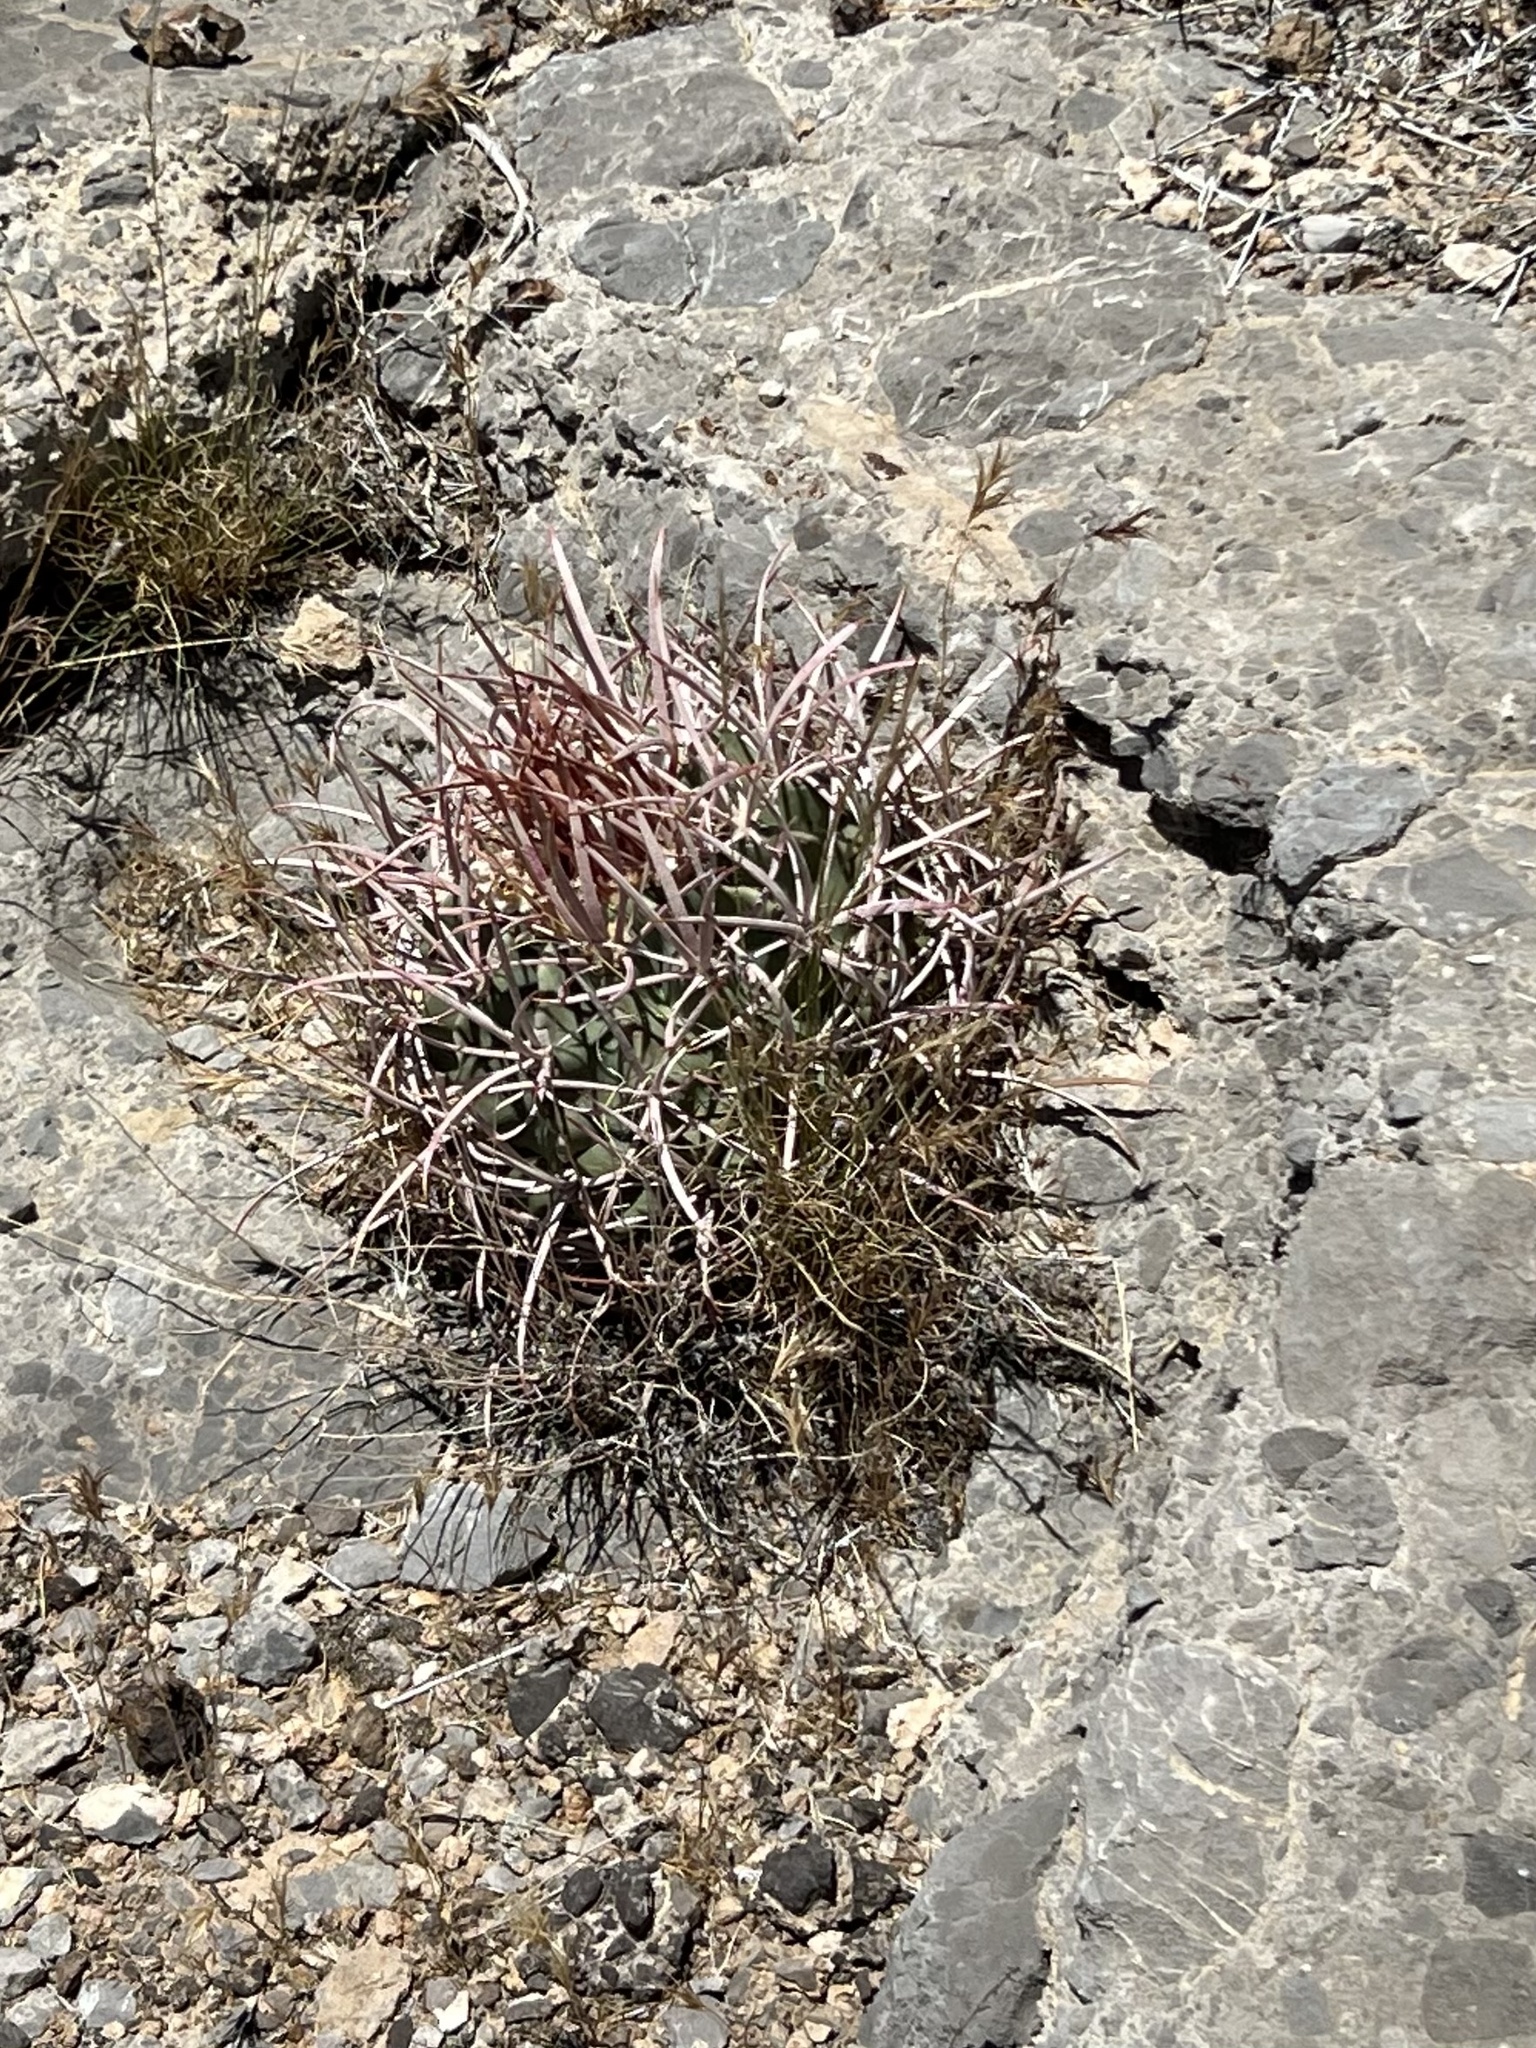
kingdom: Plantae
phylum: Tracheophyta
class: Magnoliopsida
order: Caryophyllales
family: Cactaceae
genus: Echinocactus
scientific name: Echinocactus polycephalus
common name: Cottontop cactus
